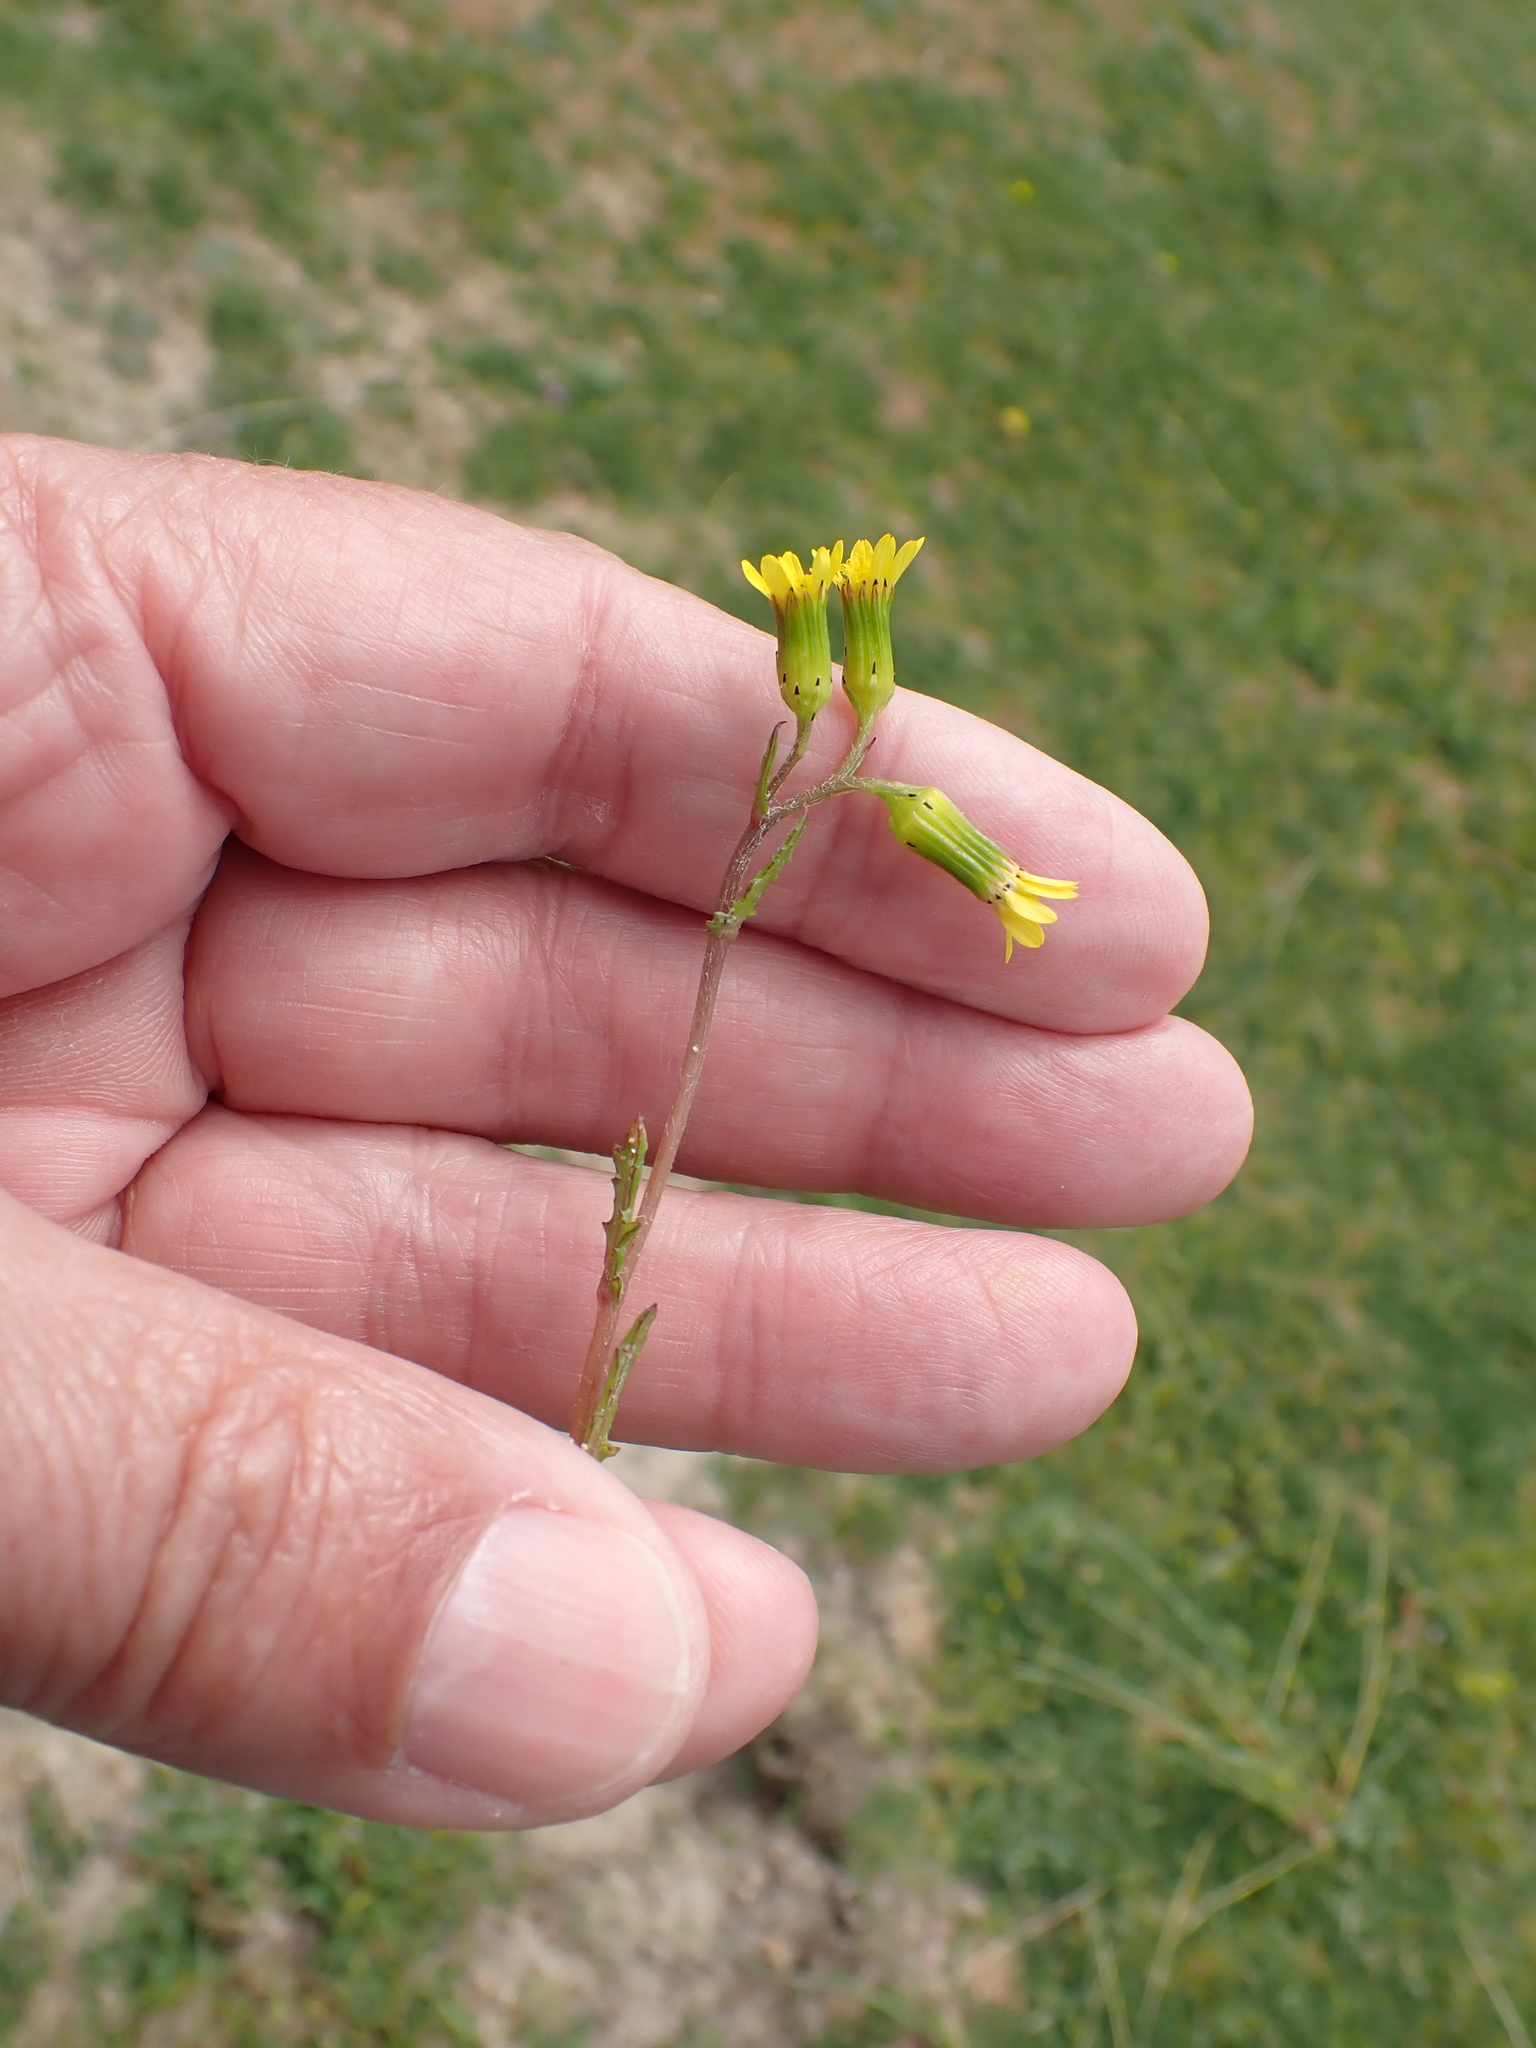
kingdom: Plantae
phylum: Tracheophyta
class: Magnoliopsida
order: Asterales
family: Asteraceae
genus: Senecio
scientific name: Senecio vulgaris
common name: Old-man-in-the-spring
